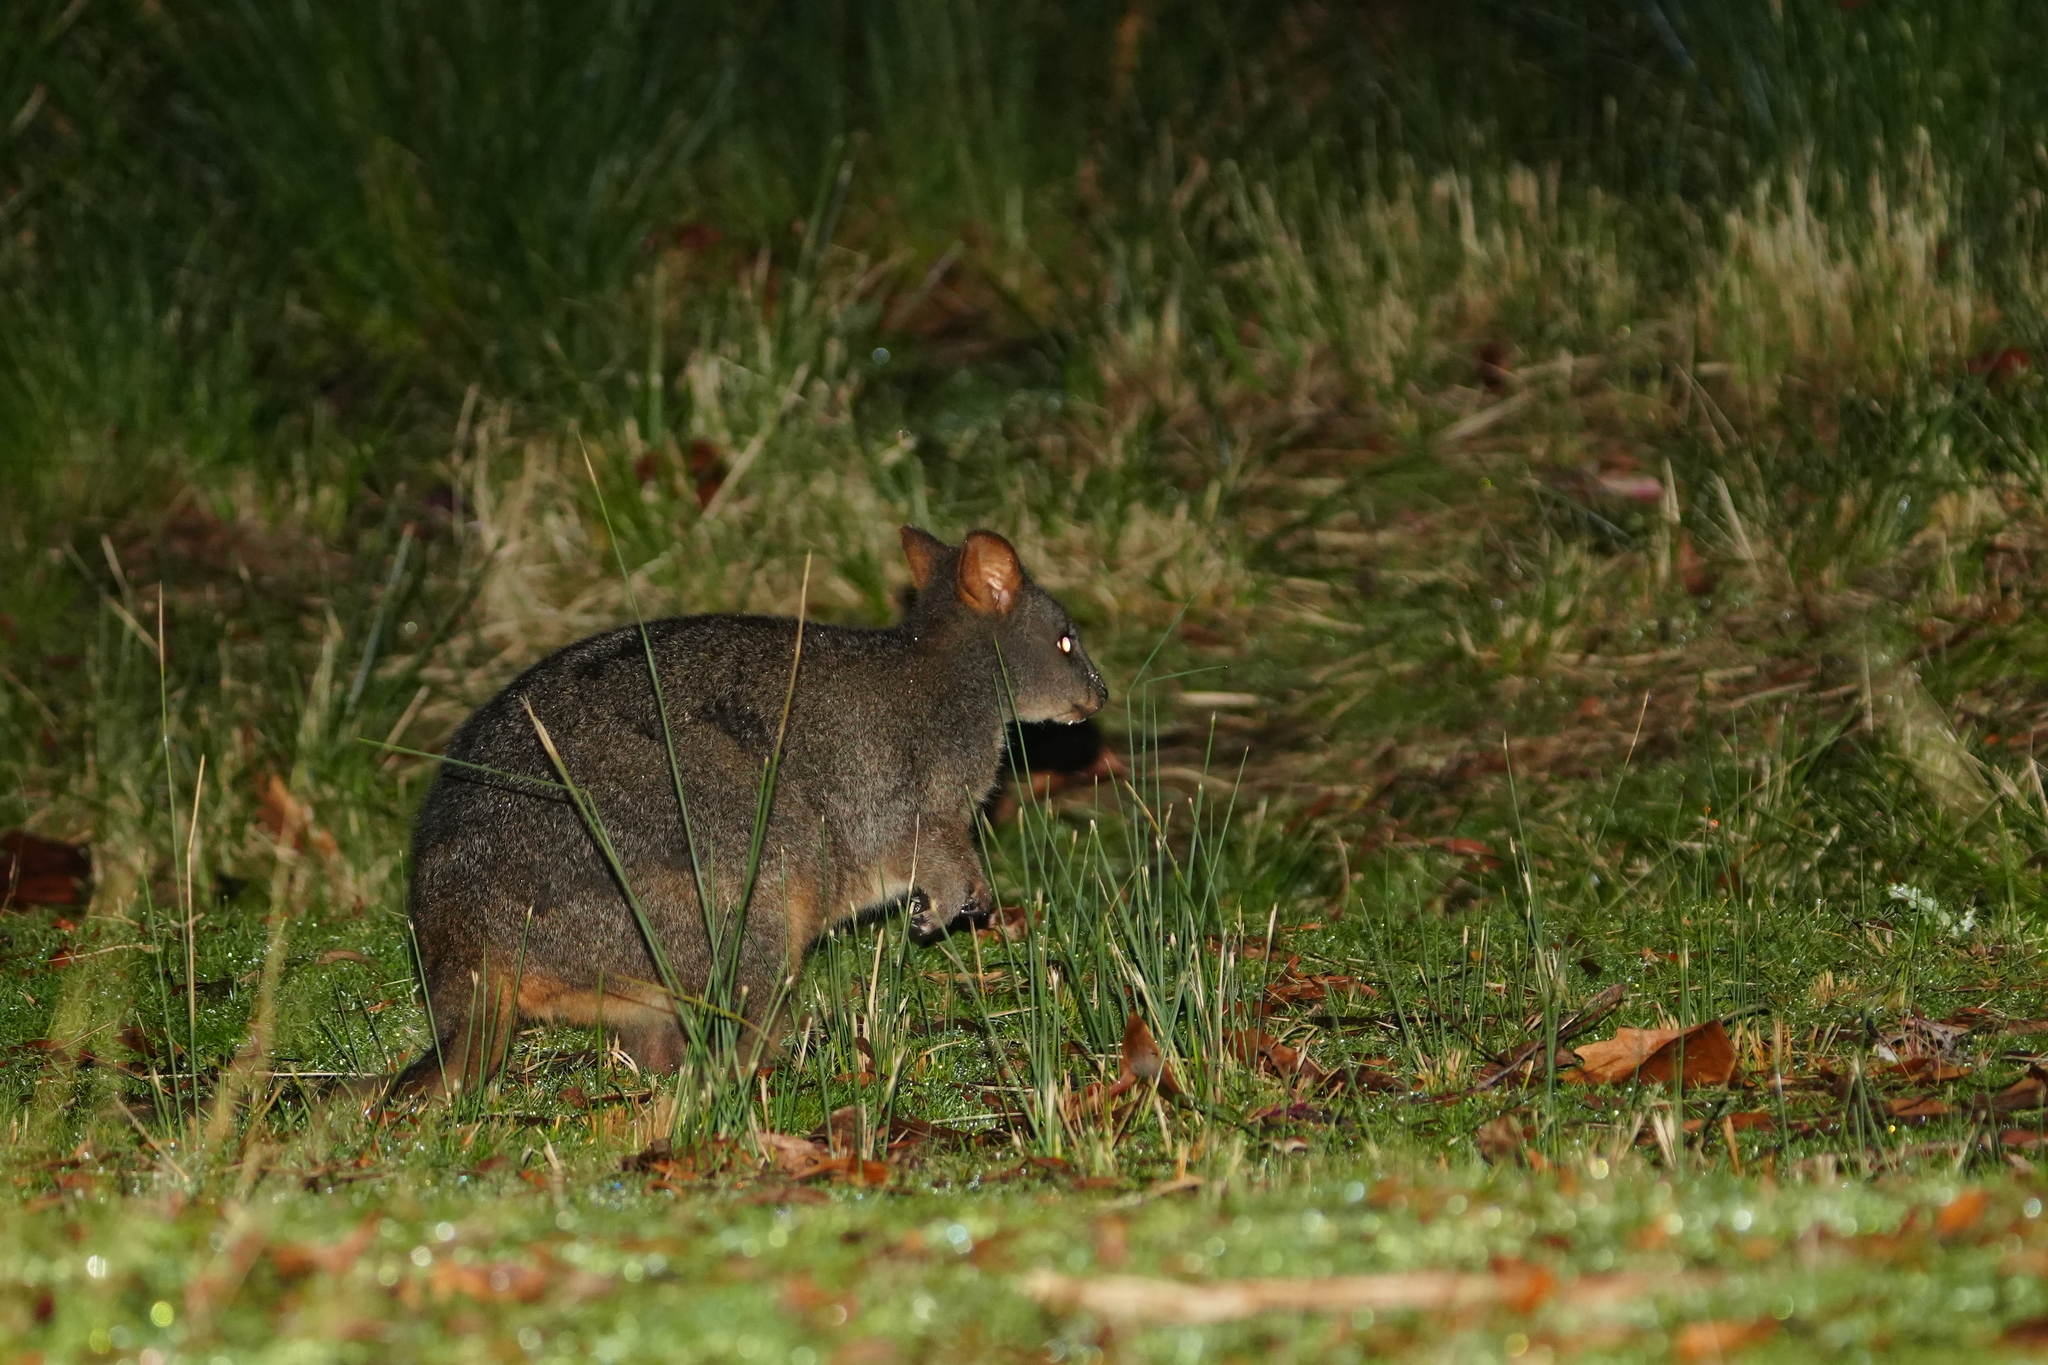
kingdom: Animalia
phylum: Chordata
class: Mammalia
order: Diprotodontia
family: Macropodidae
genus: Thylogale
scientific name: Thylogale billardierii
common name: Tasmanian pademelon
